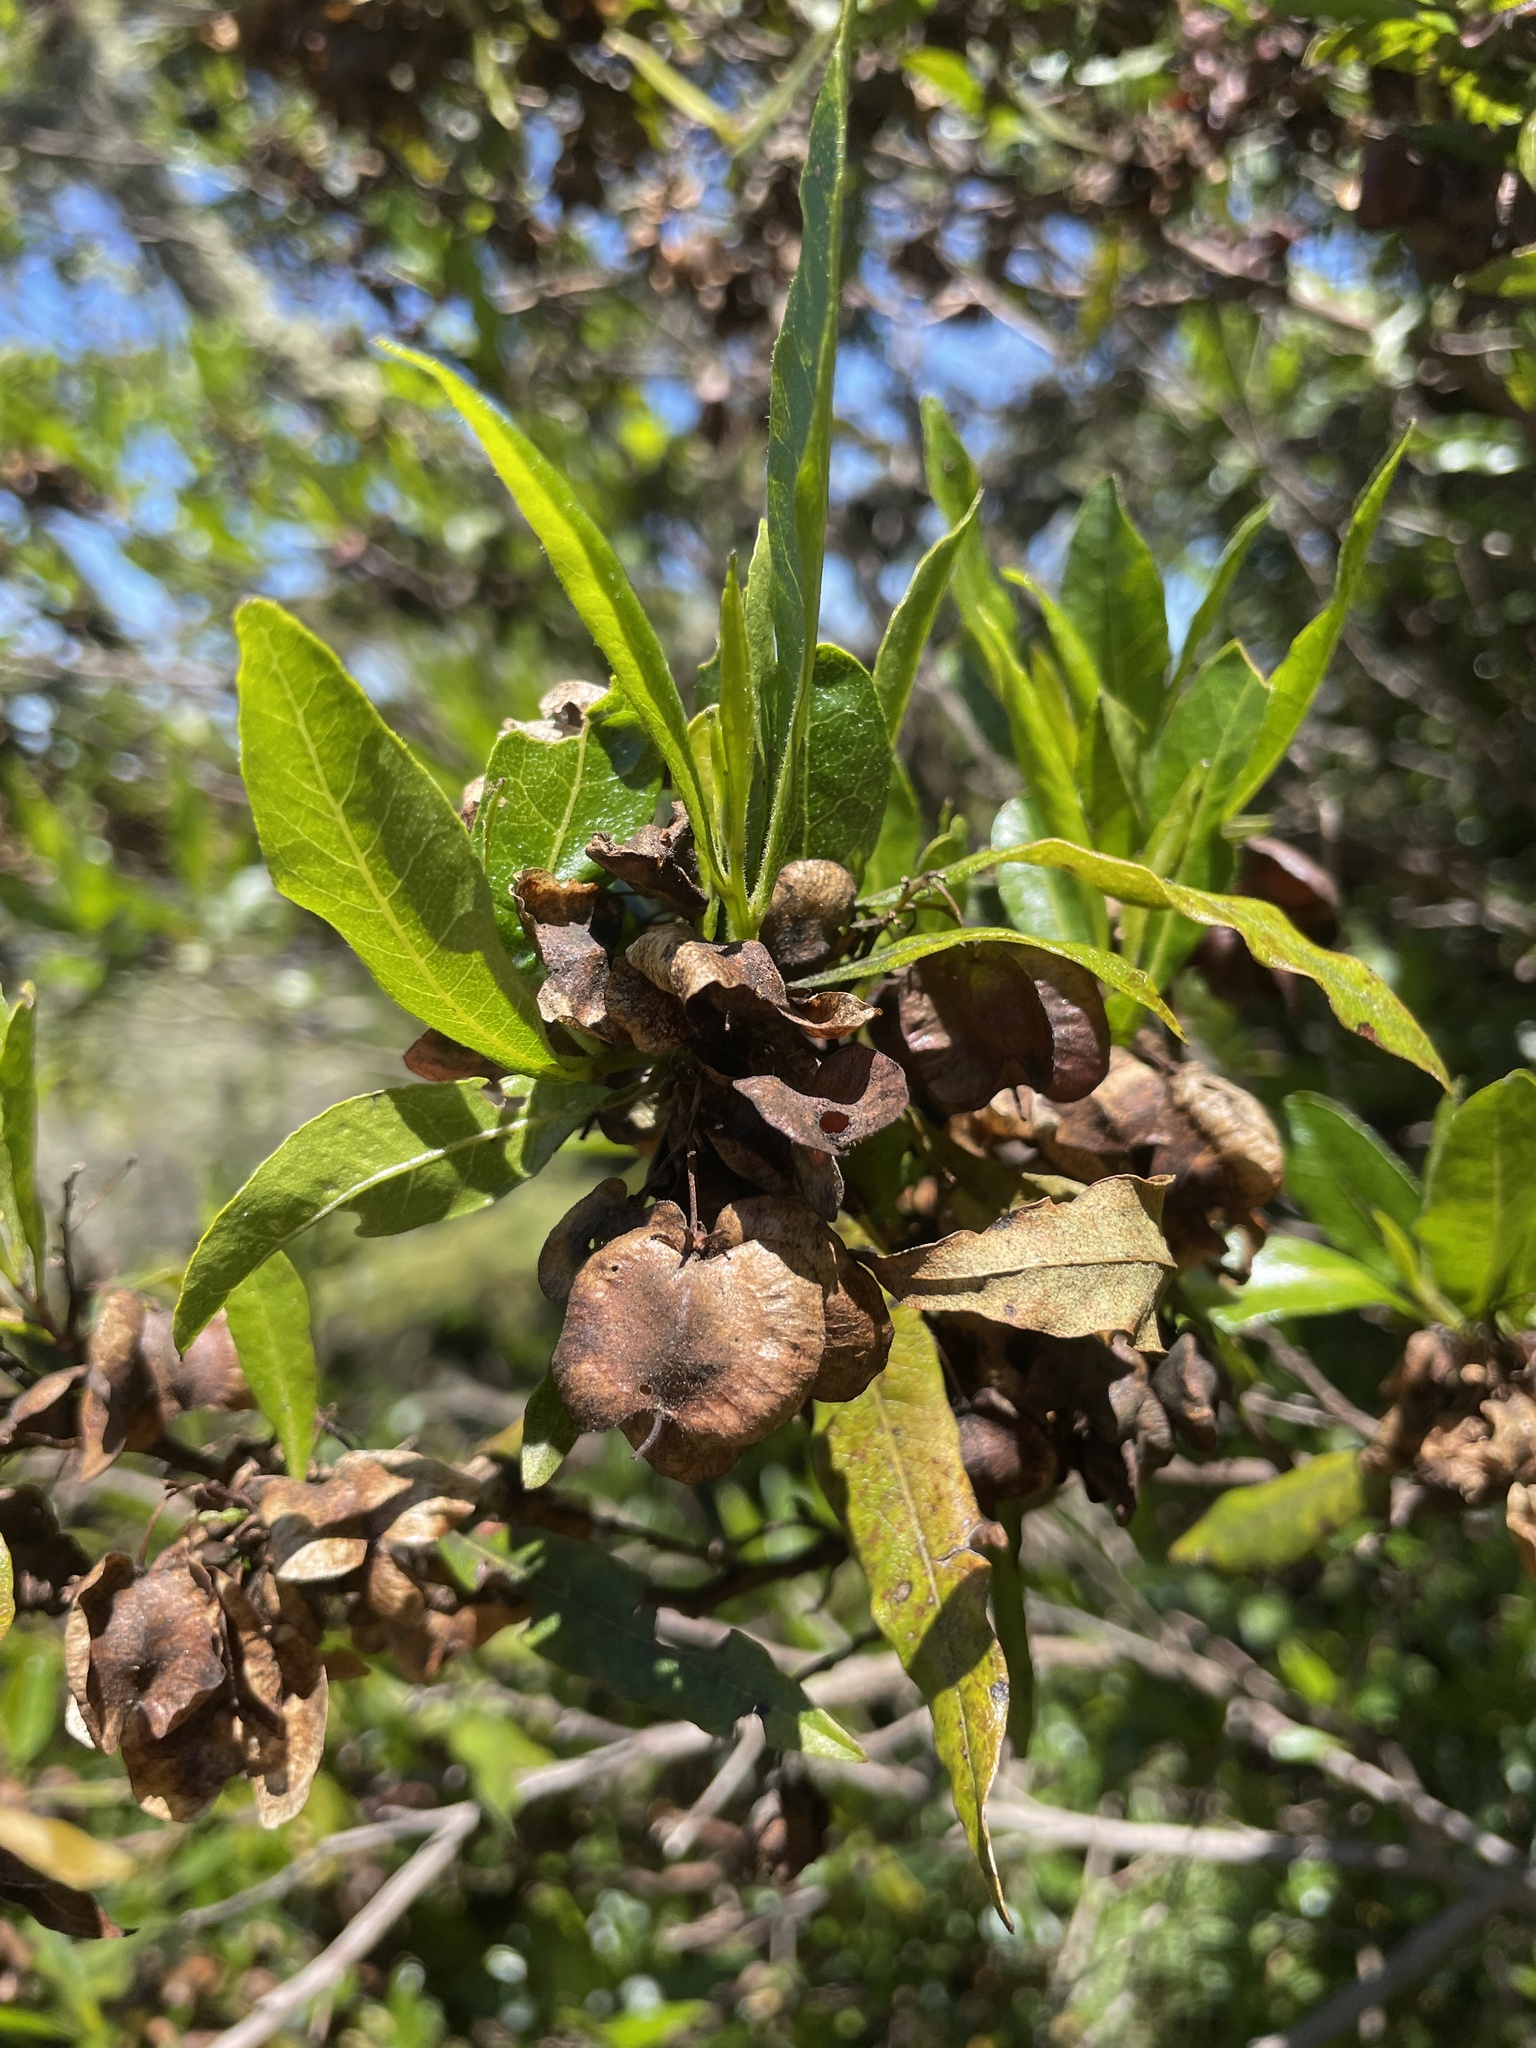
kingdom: Plantae
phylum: Tracheophyta
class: Magnoliopsida
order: Sapindales
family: Sapindaceae
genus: Dodonaea
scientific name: Dodonaea viscosa
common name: Hopbush
